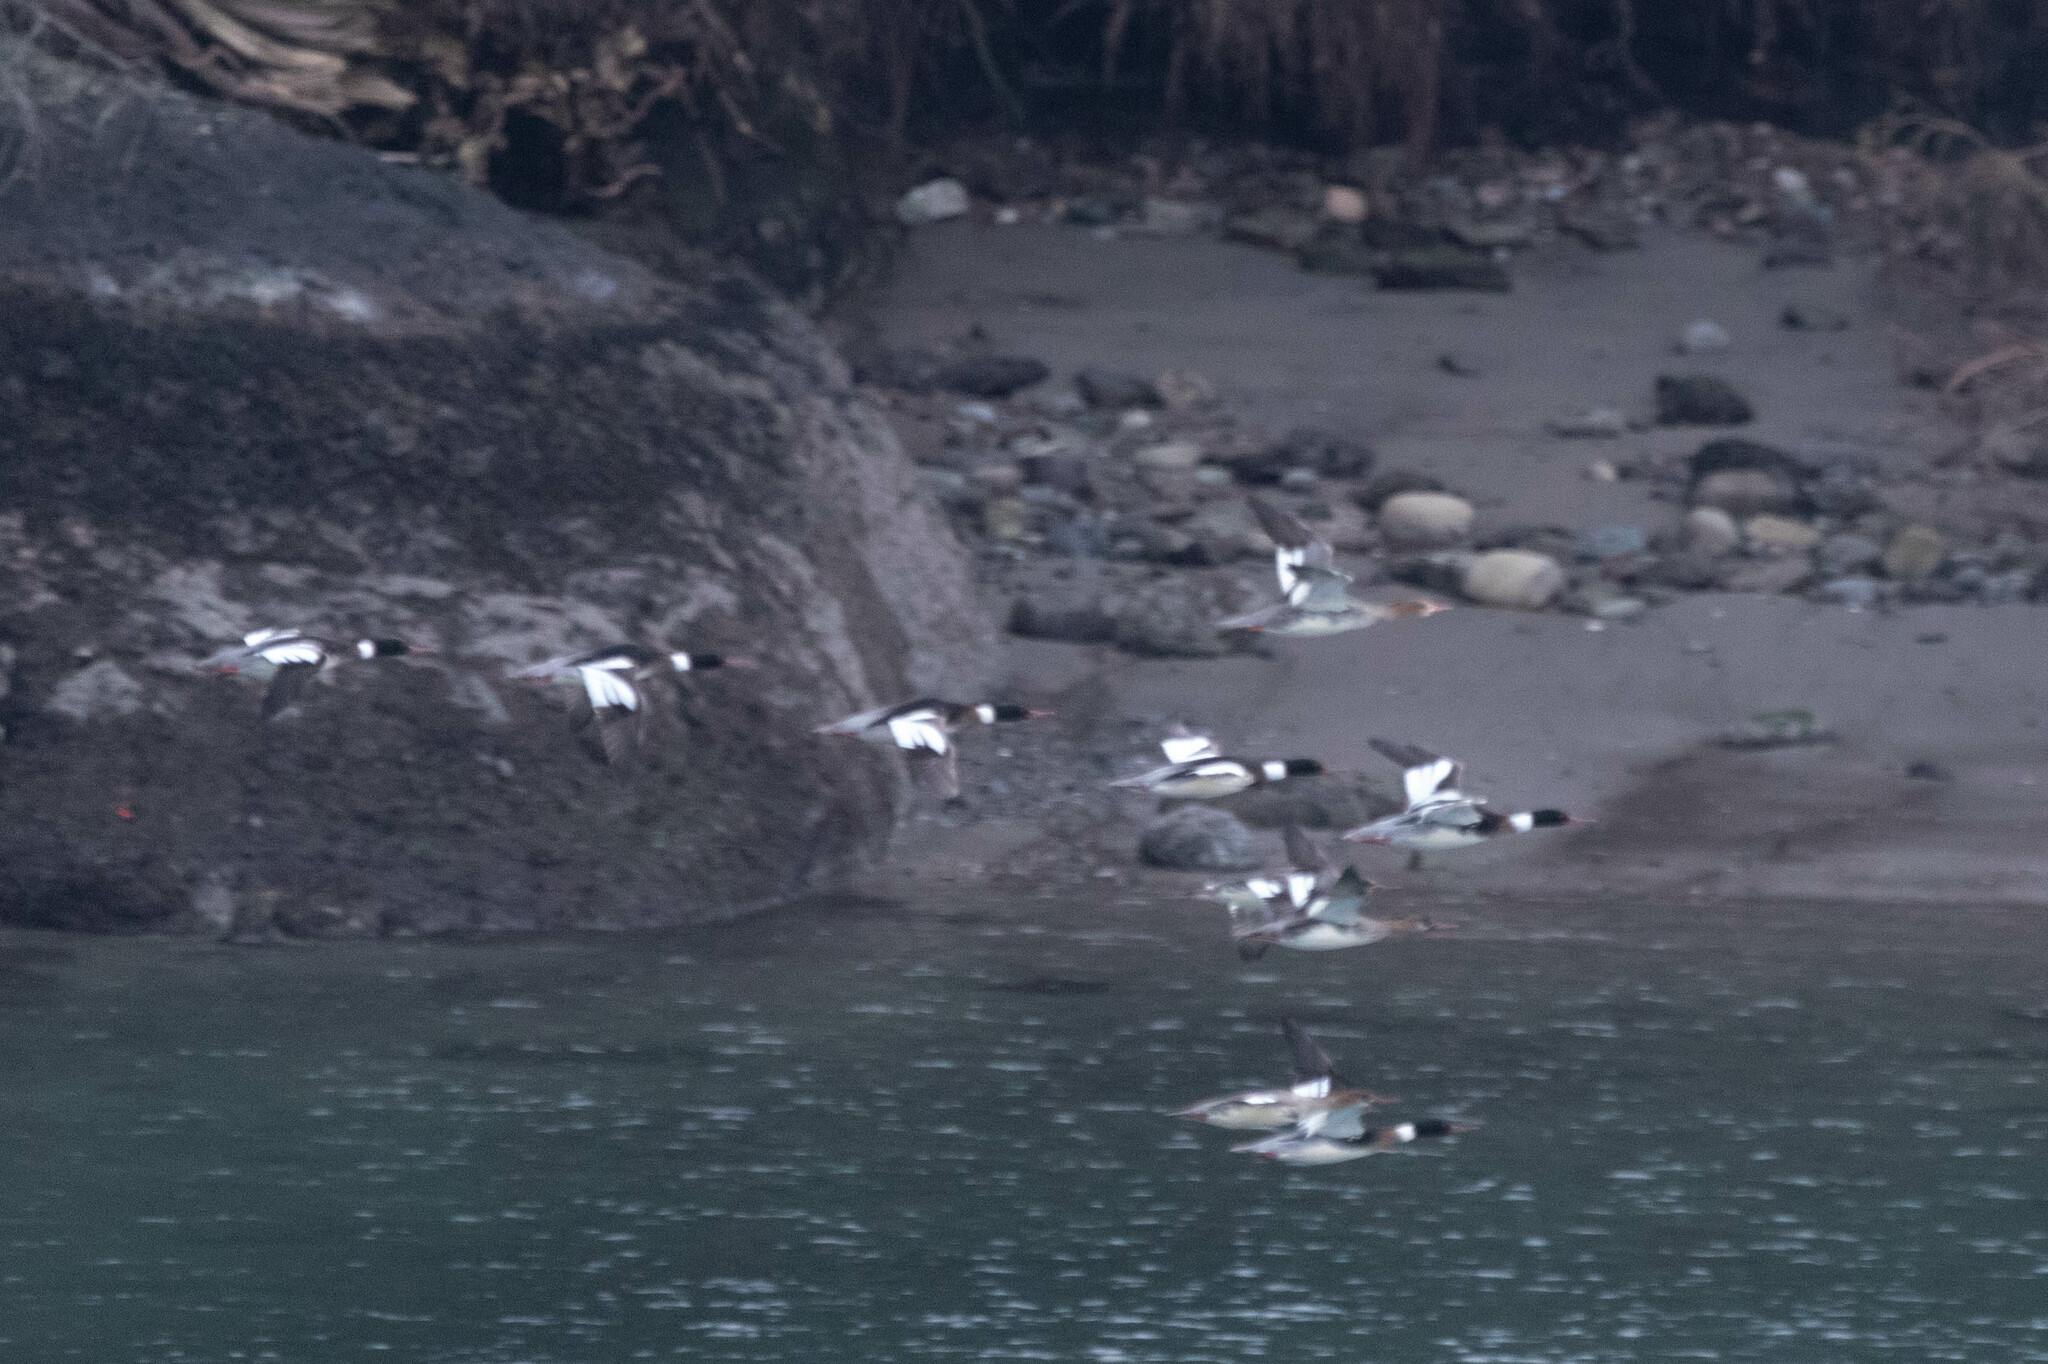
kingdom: Animalia
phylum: Chordata
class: Aves
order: Anseriformes
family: Anatidae
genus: Mergus
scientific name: Mergus serrator
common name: Red-breasted merganser
